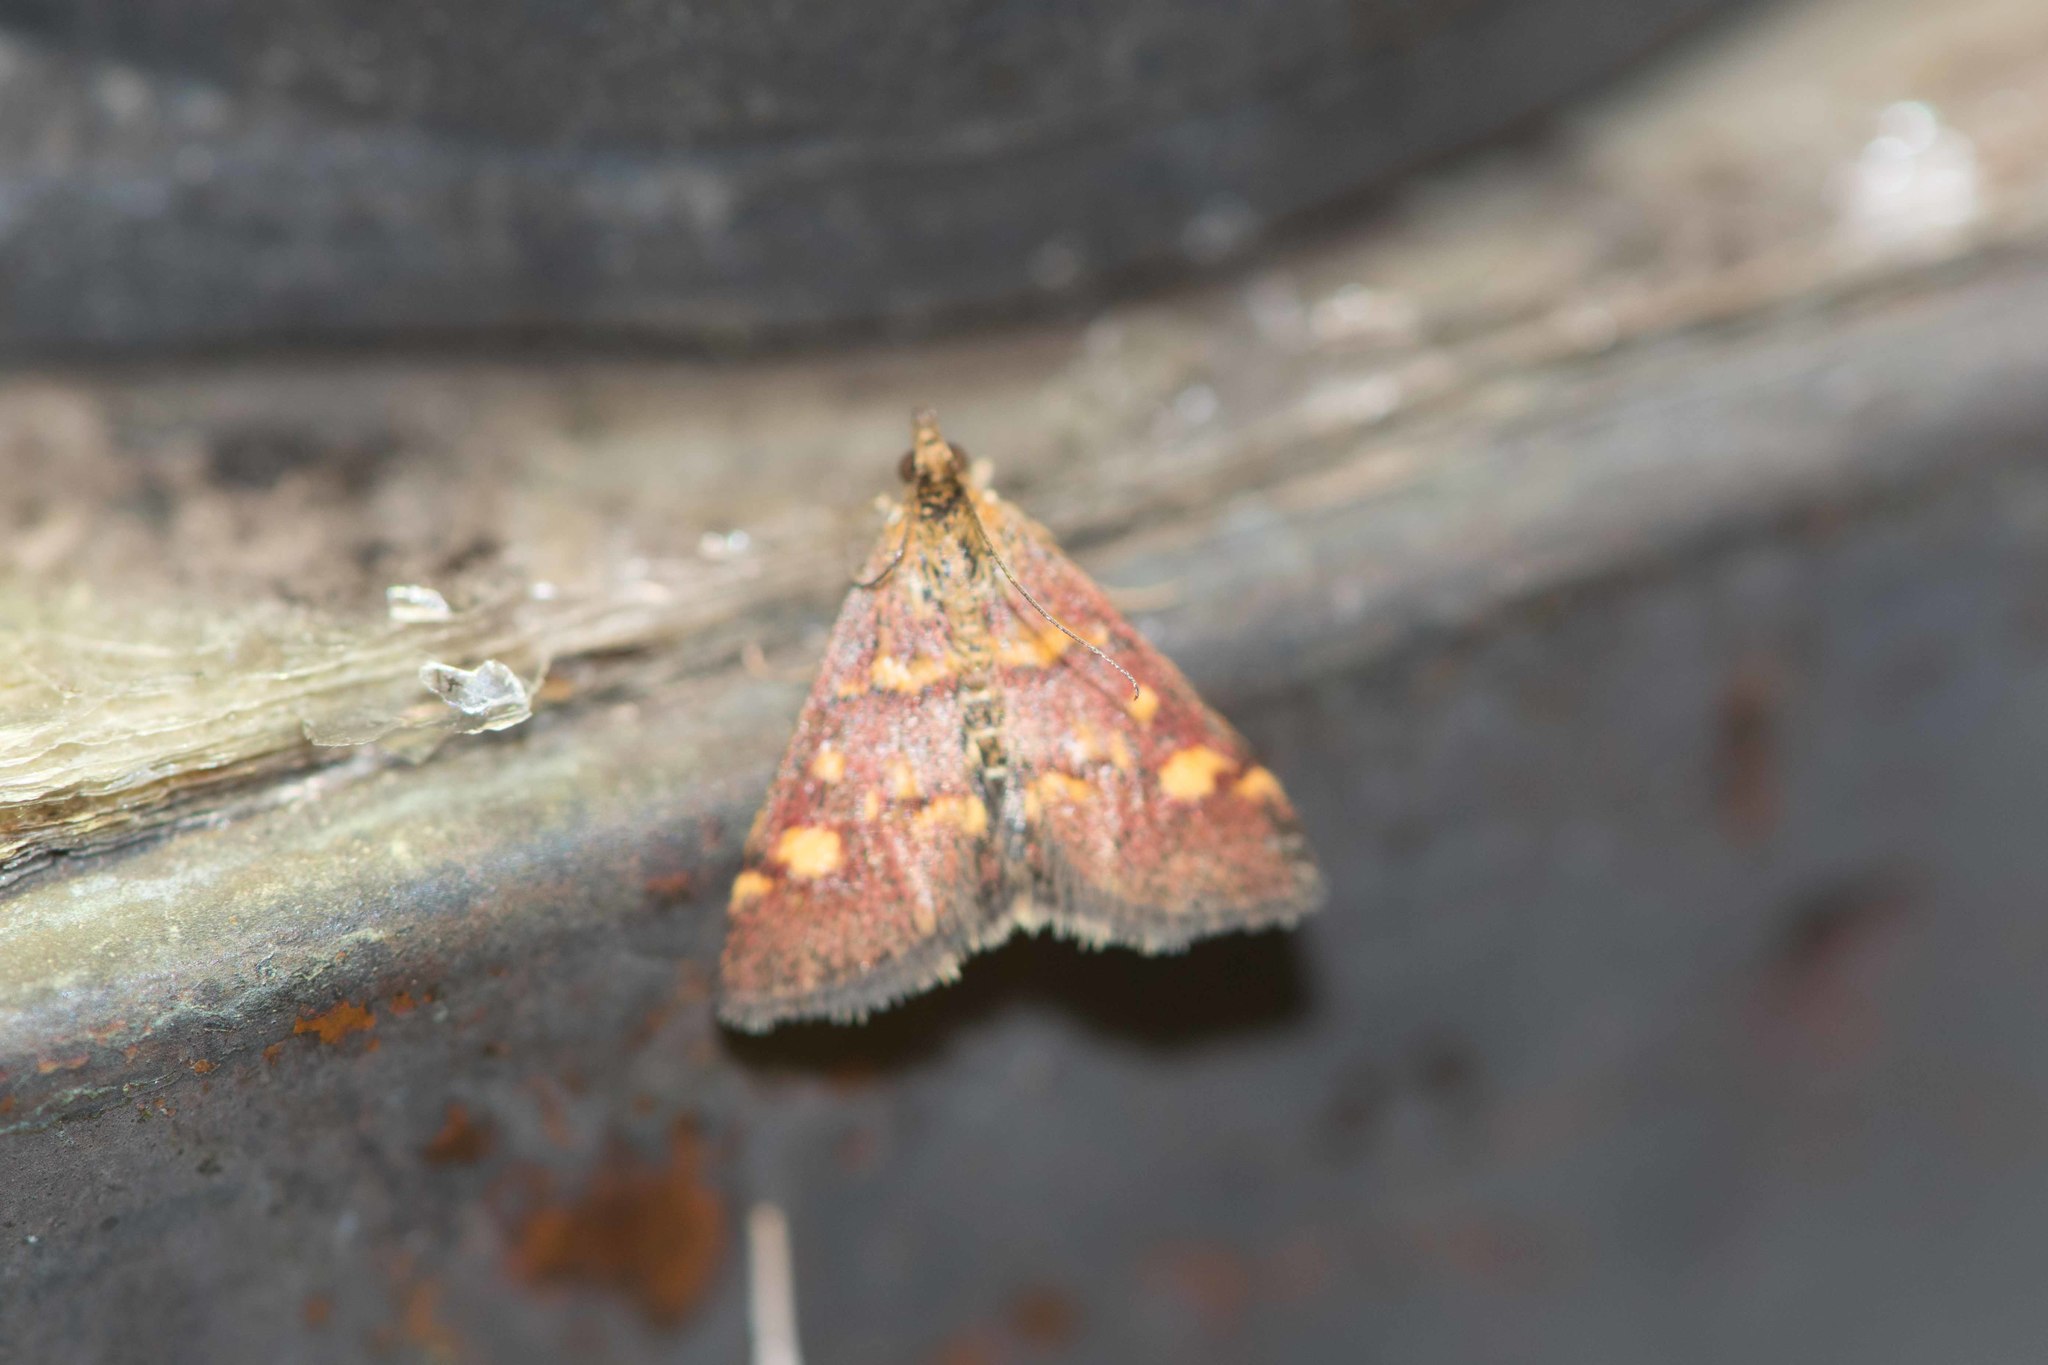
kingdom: Animalia
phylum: Arthropoda
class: Insecta
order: Lepidoptera
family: Crambidae
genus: Pyrausta
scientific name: Pyrausta aurata
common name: Small purple & gold
